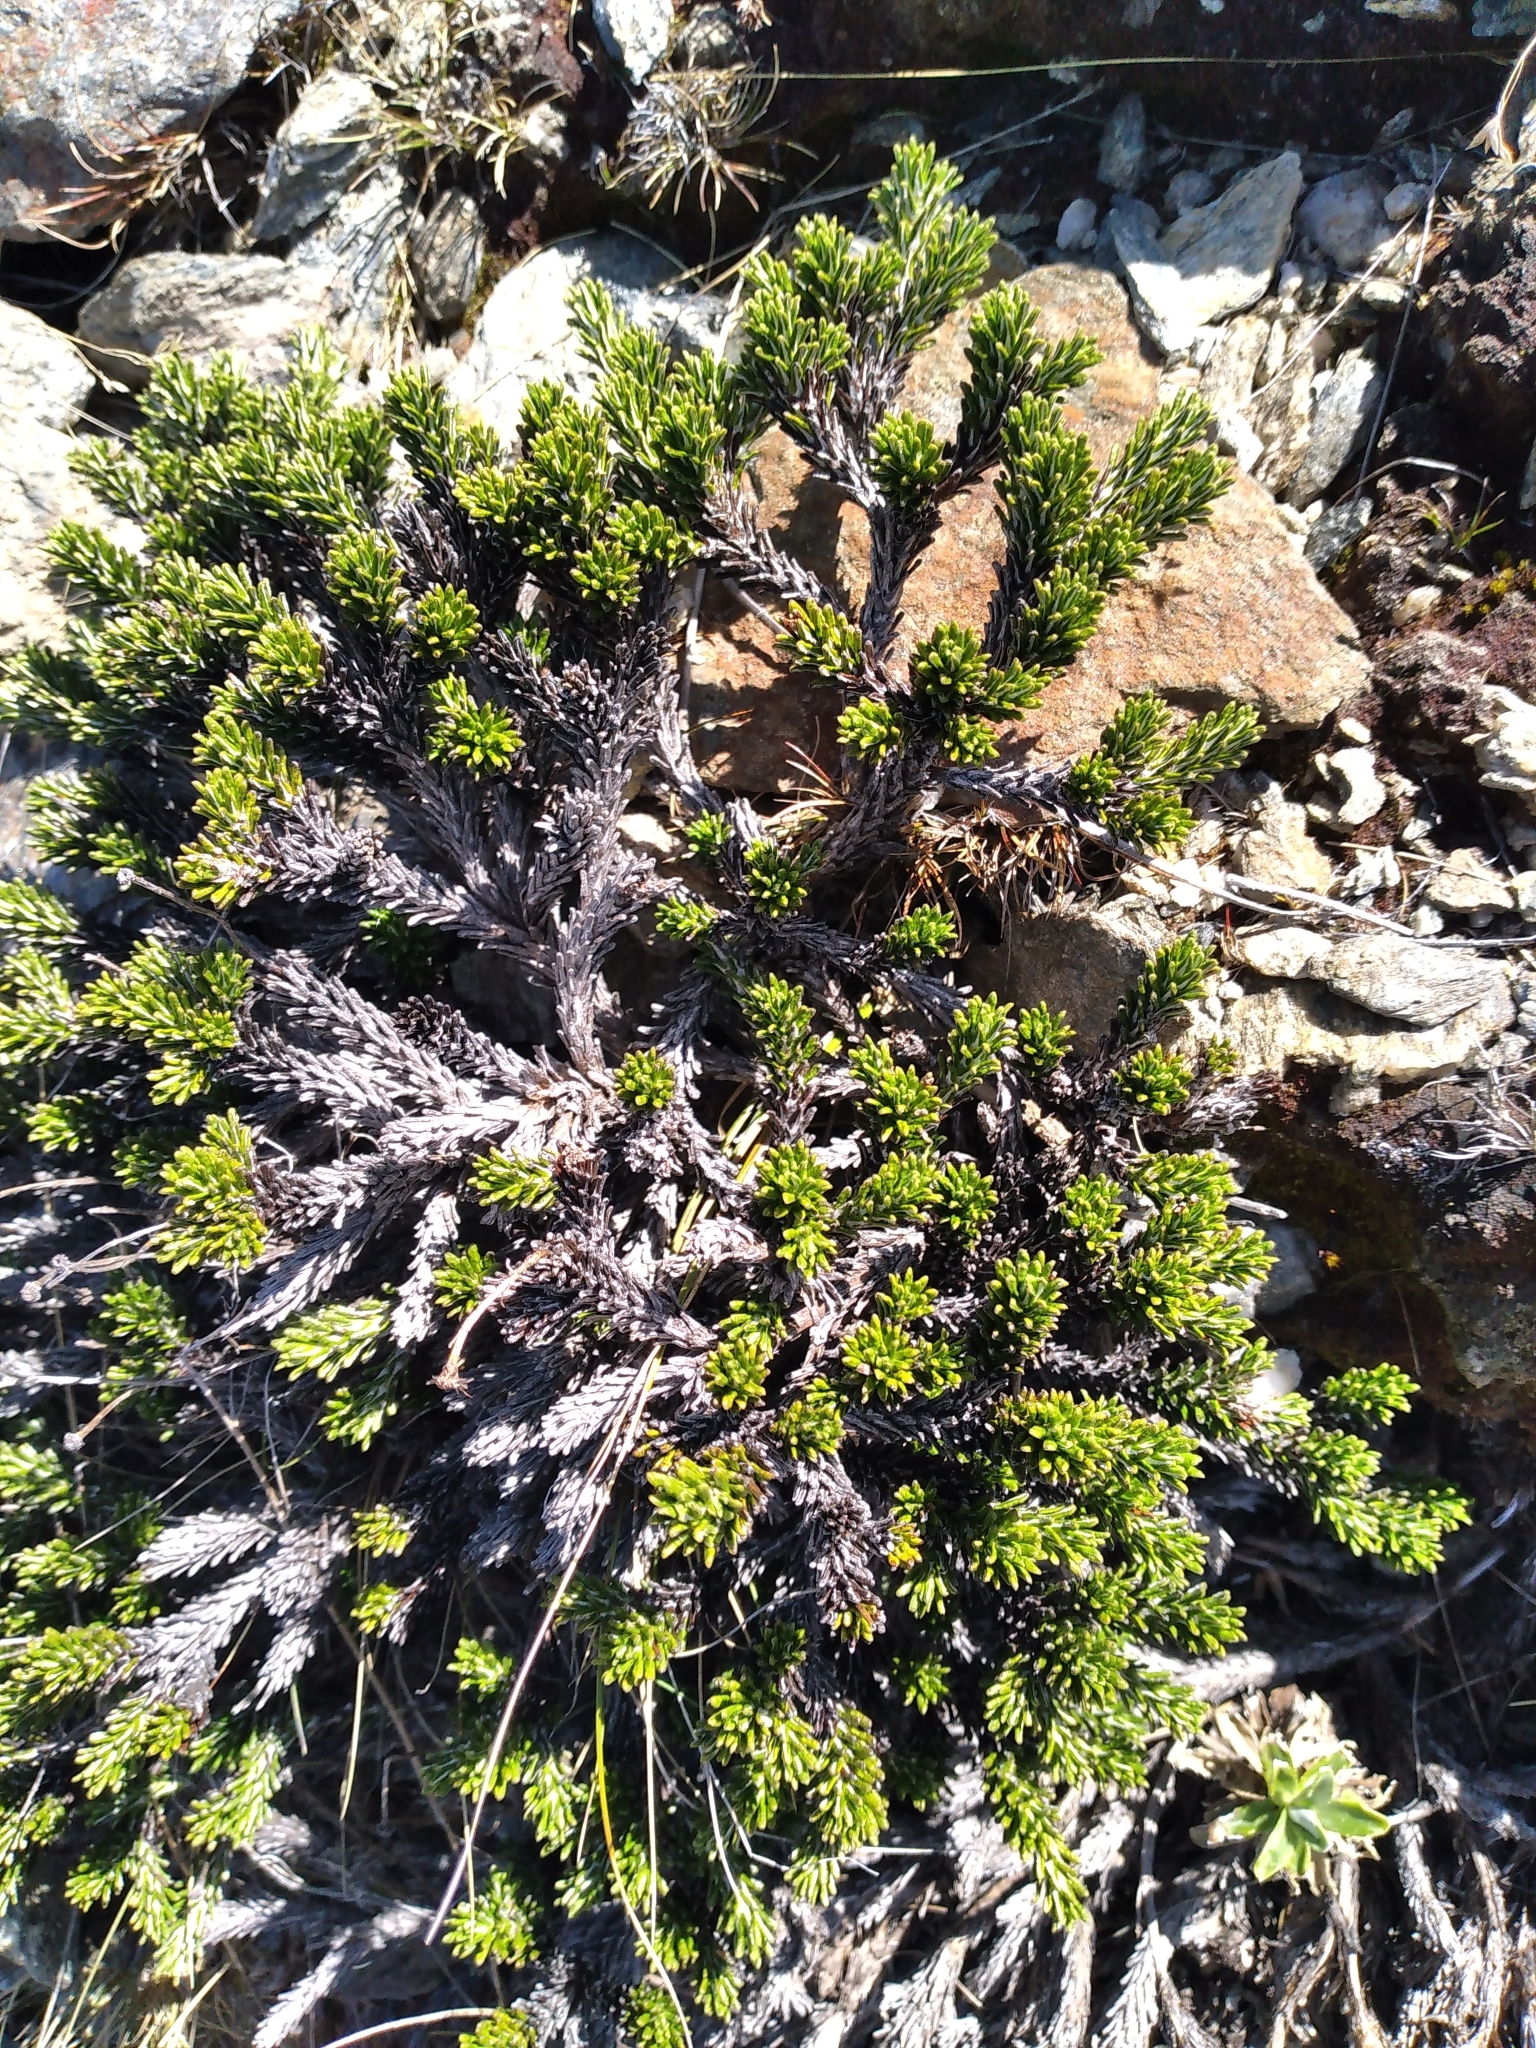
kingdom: Plantae
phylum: Tracheophyta
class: Magnoliopsida
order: Asterales
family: Asteraceae
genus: Celmisia
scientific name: Celmisia ramulosa
